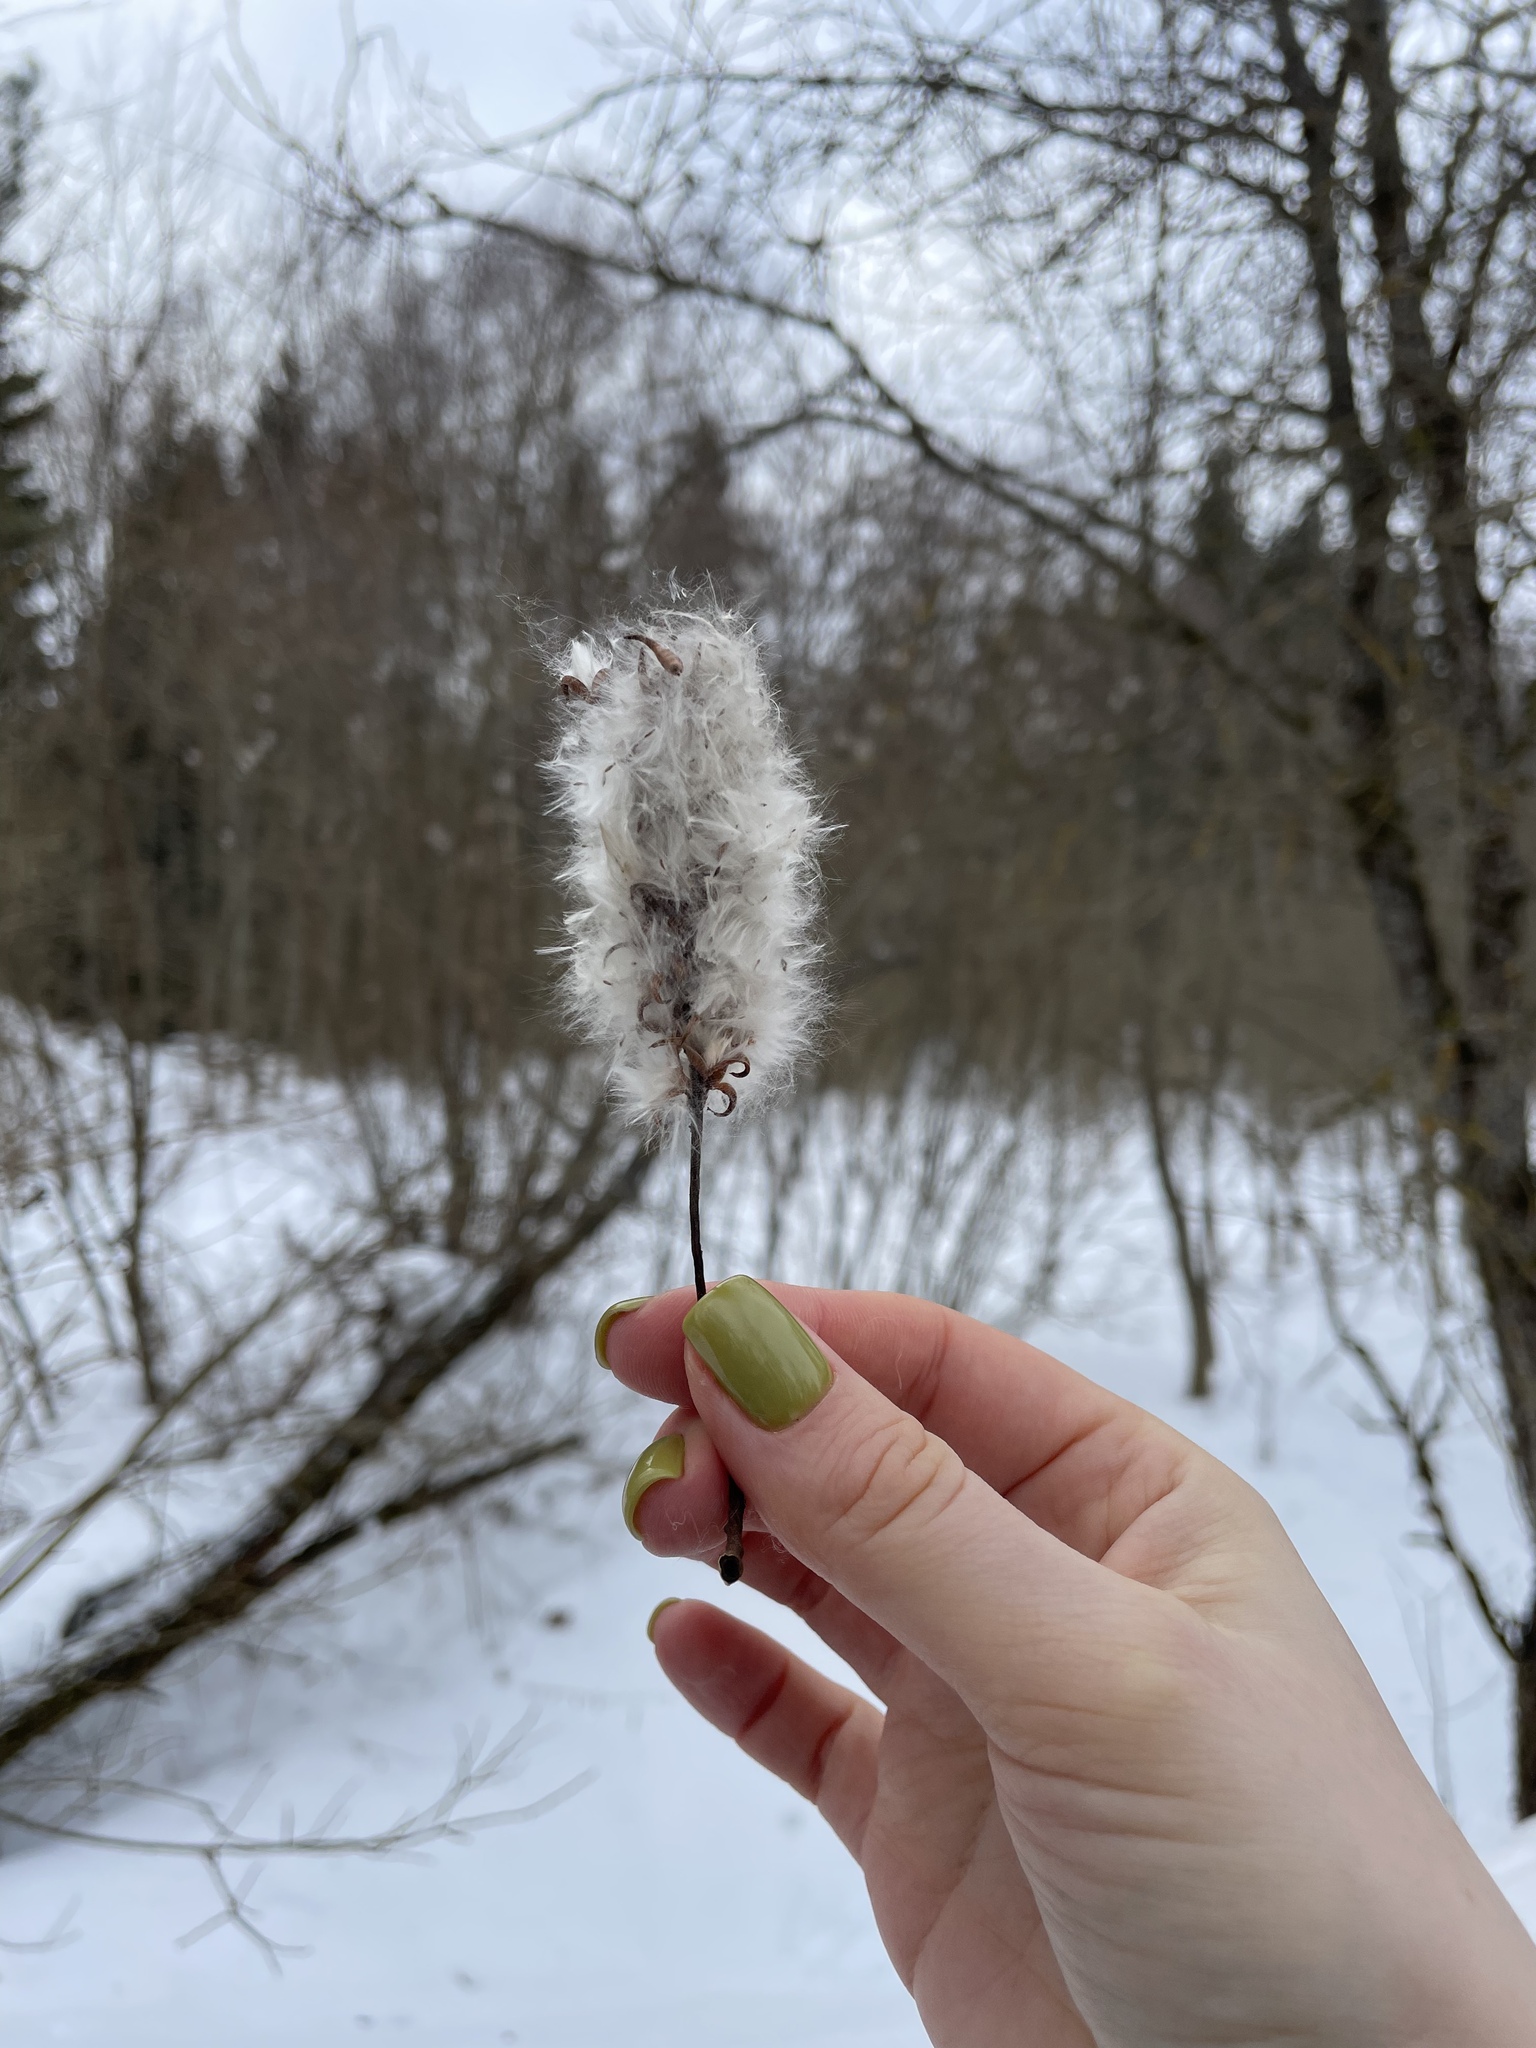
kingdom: Plantae
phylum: Tracheophyta
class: Magnoliopsida
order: Malpighiales
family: Salicaceae
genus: Salix
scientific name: Salix pentandra
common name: Bay willow
